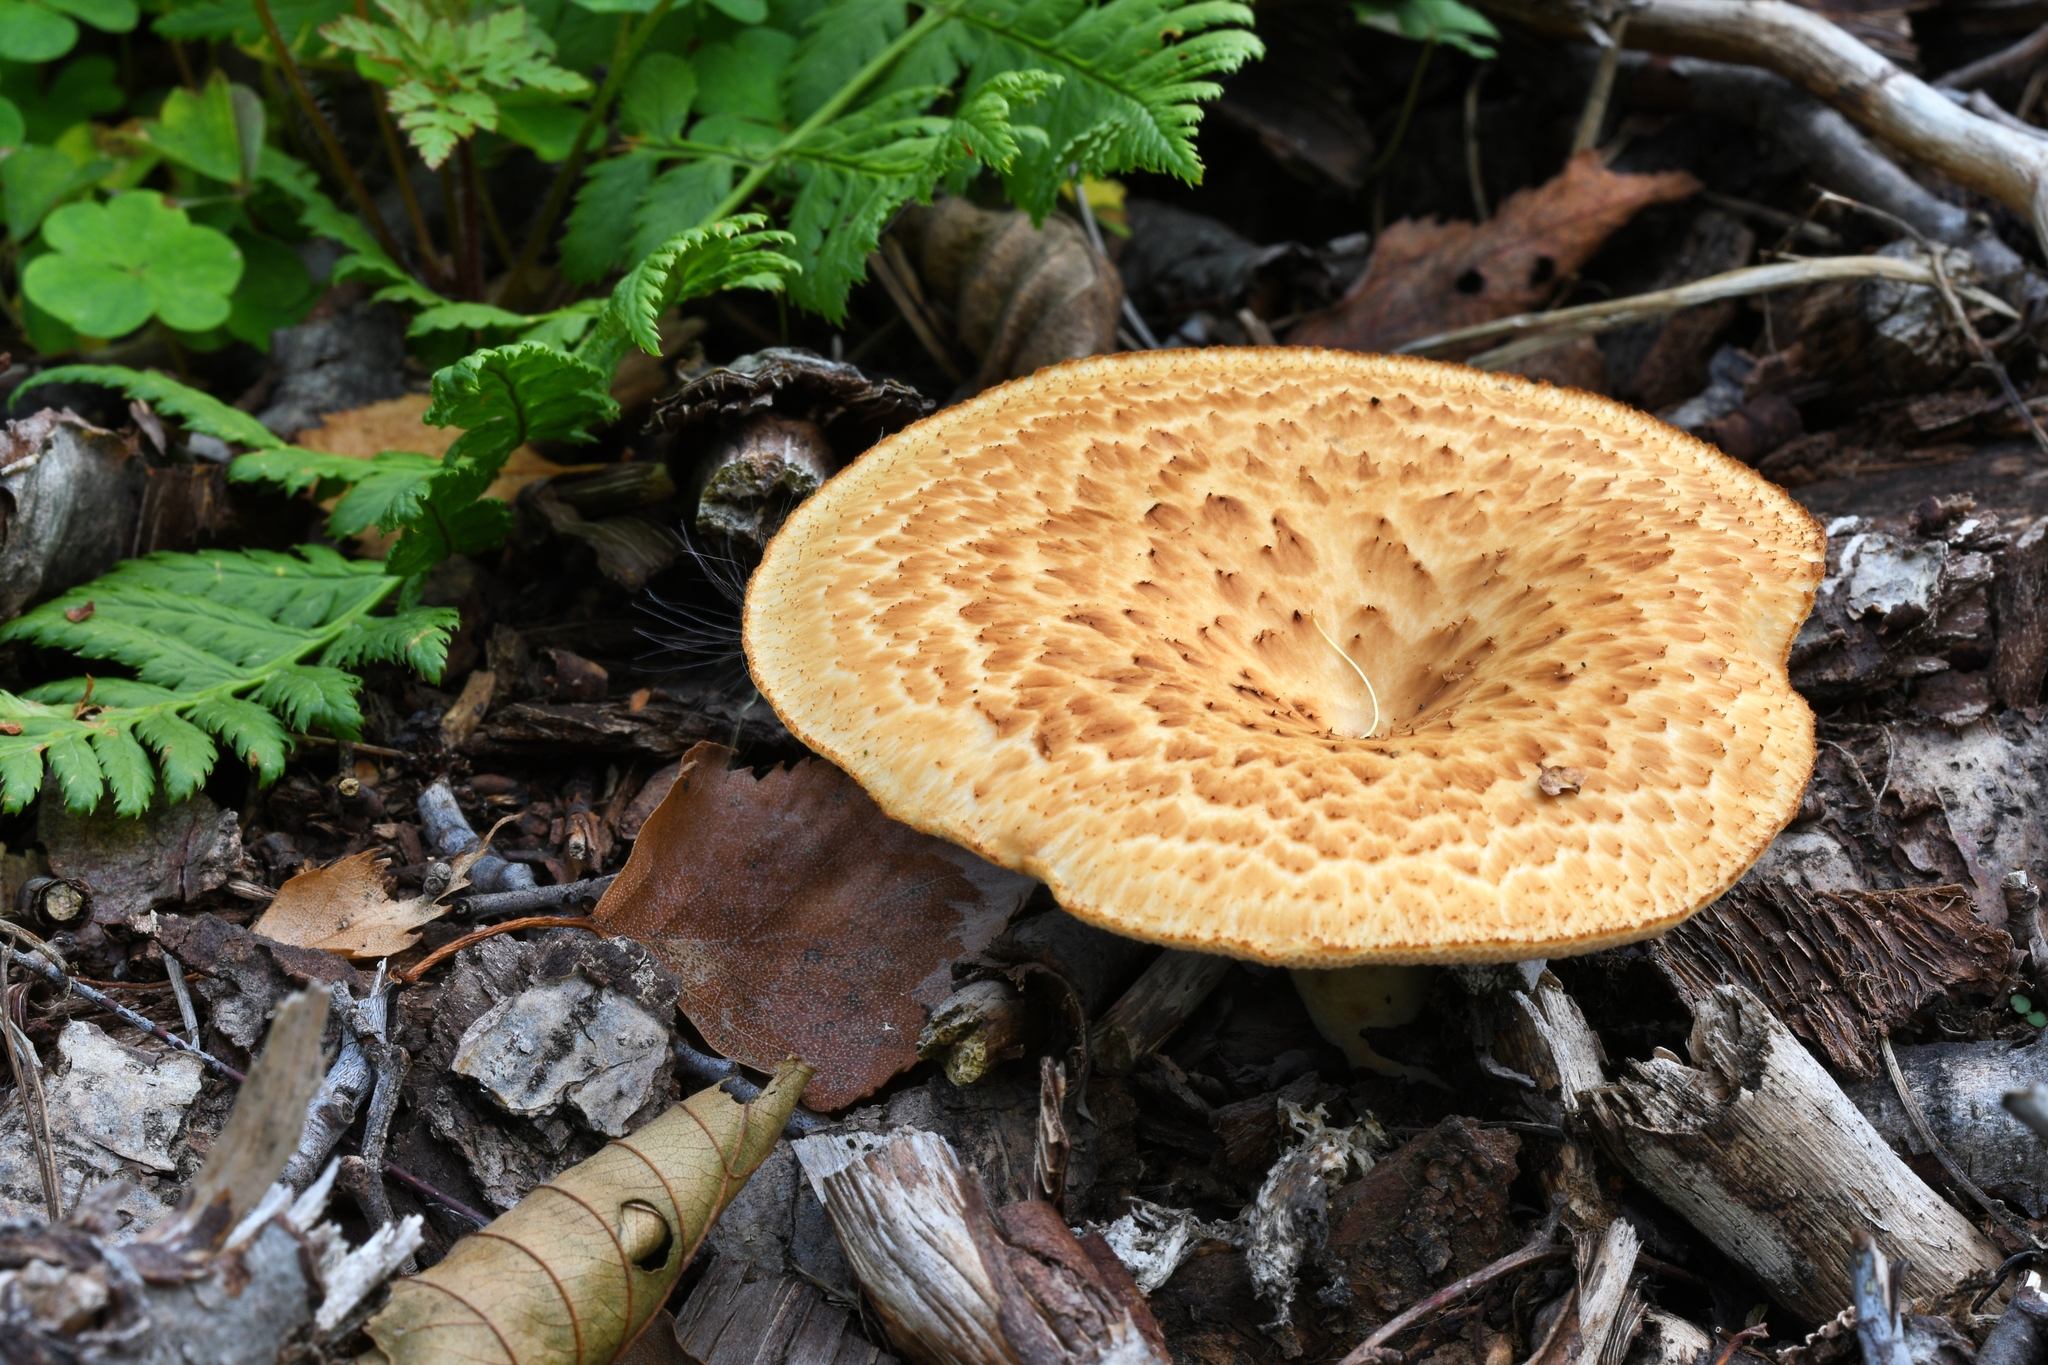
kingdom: Fungi
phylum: Basidiomycota
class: Agaricomycetes
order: Polyporales
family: Polyporaceae
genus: Cerioporus
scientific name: Cerioporus squamosus
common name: Dryad's saddle
